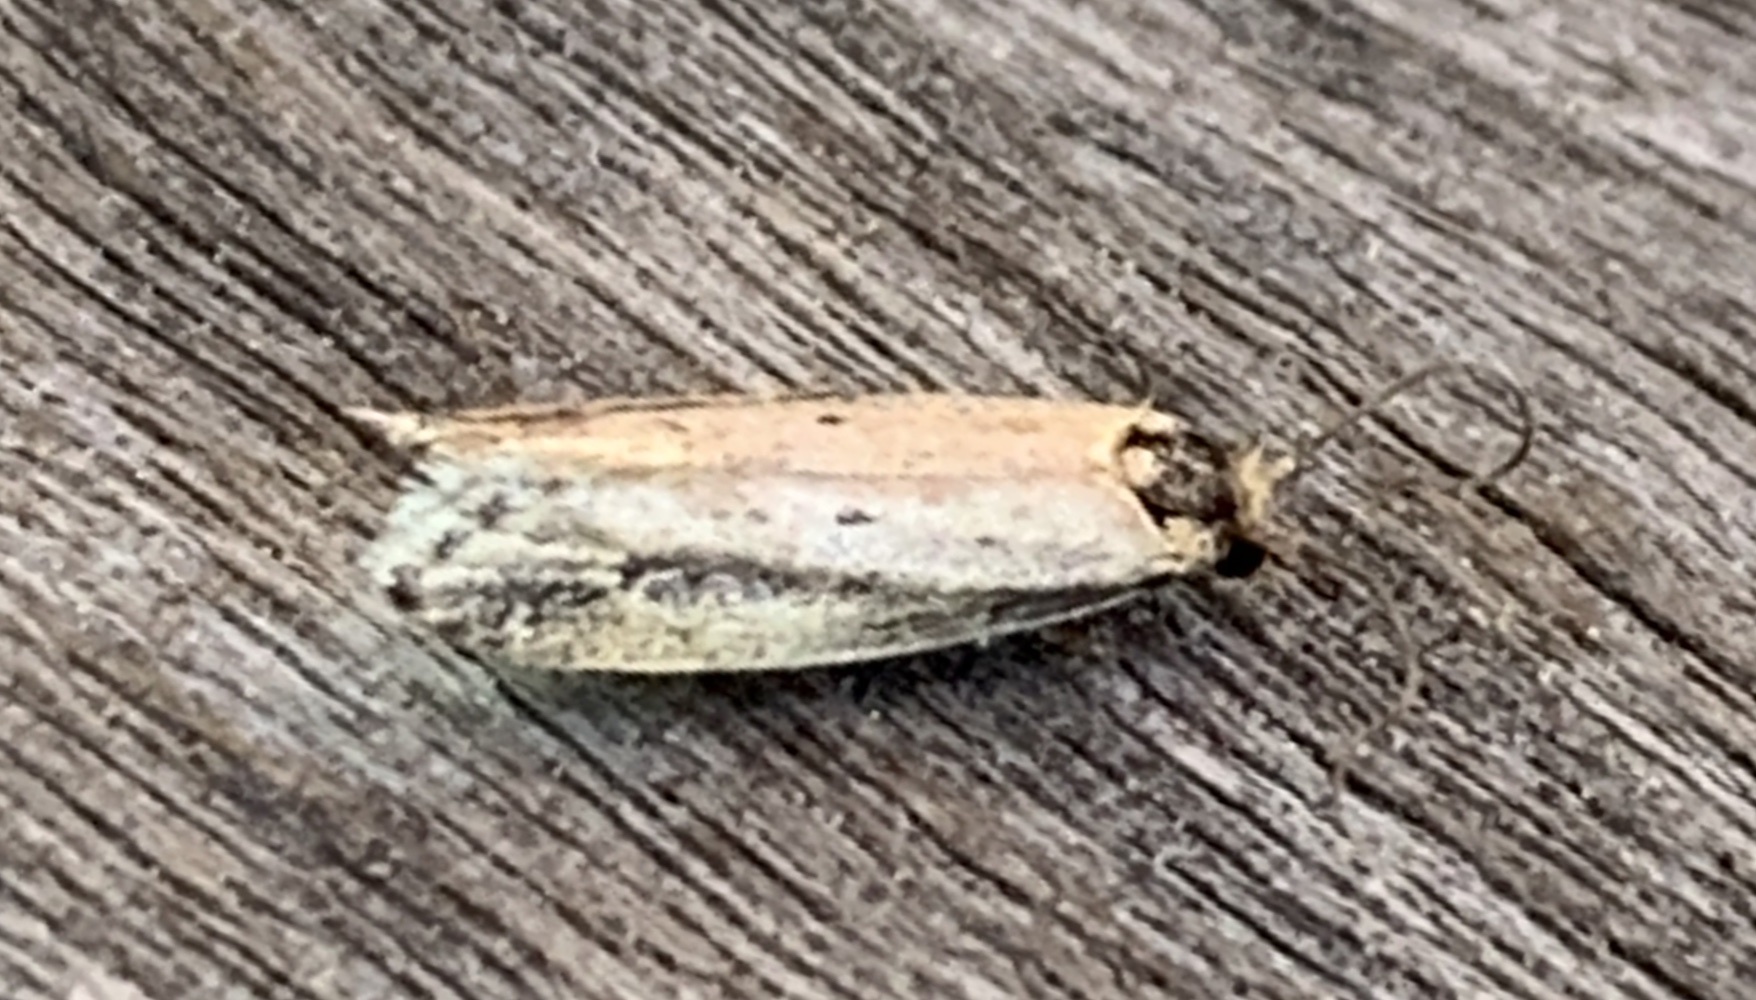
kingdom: Animalia
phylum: Arthropoda
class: Insecta
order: Lepidoptera
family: Tineidae
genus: Tinea
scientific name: Tinea apicimaculella
